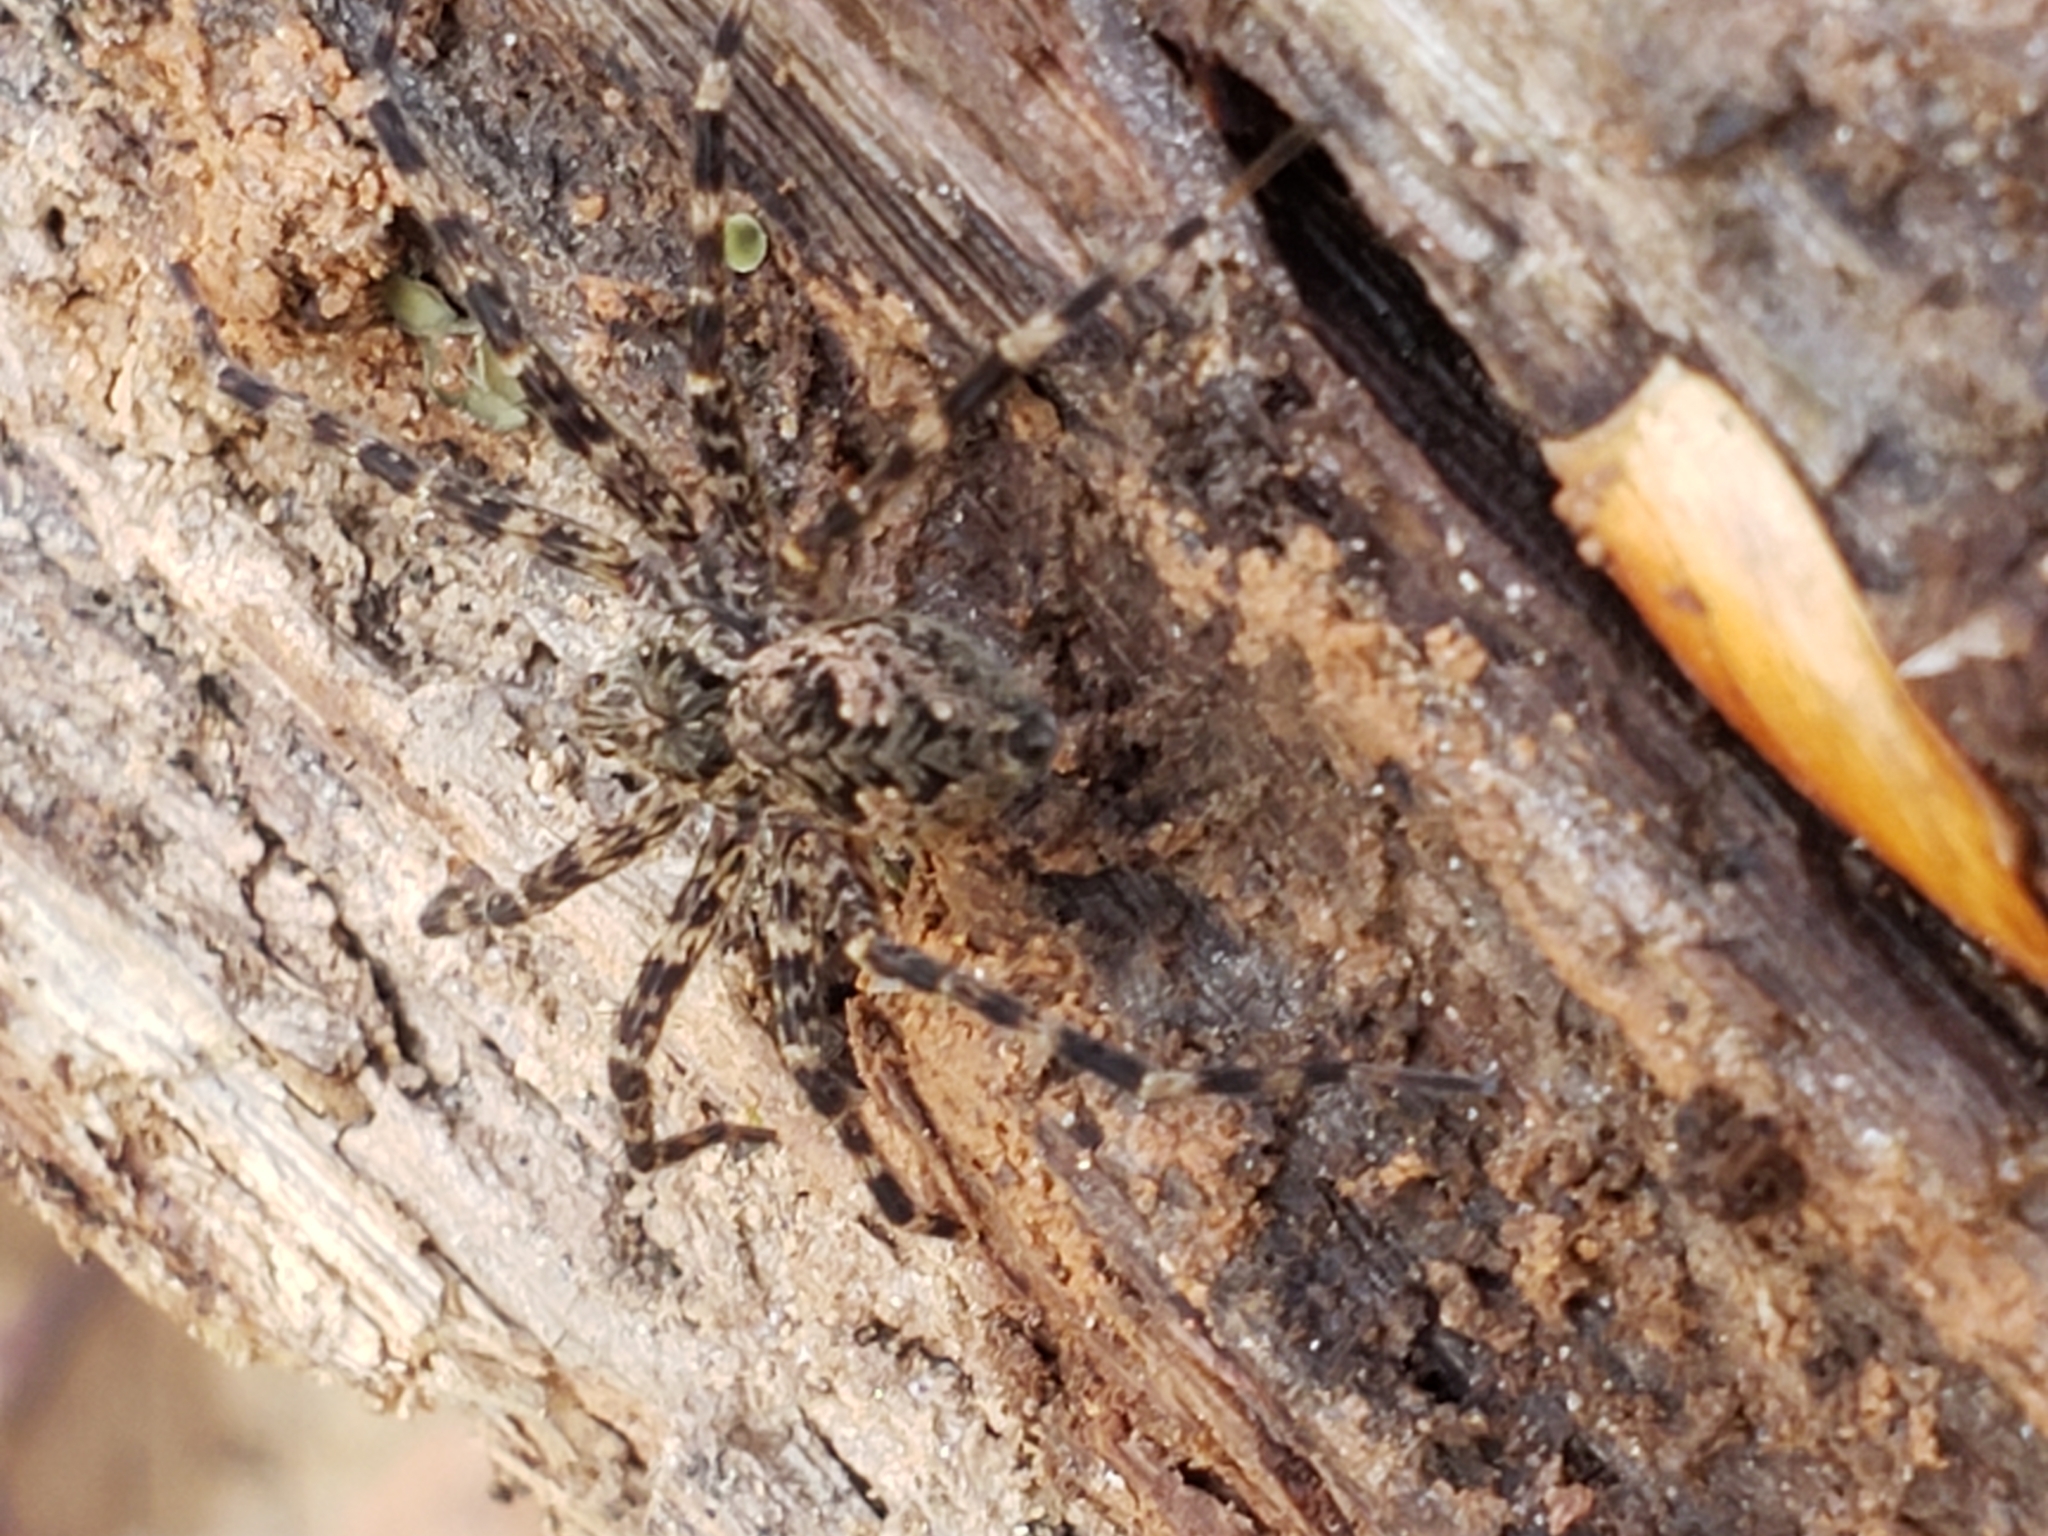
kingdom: Animalia
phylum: Arthropoda
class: Arachnida
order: Araneae
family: Pisauridae
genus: Dolomedes
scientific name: Dolomedes tenebrosus
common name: Dark fishing spider
